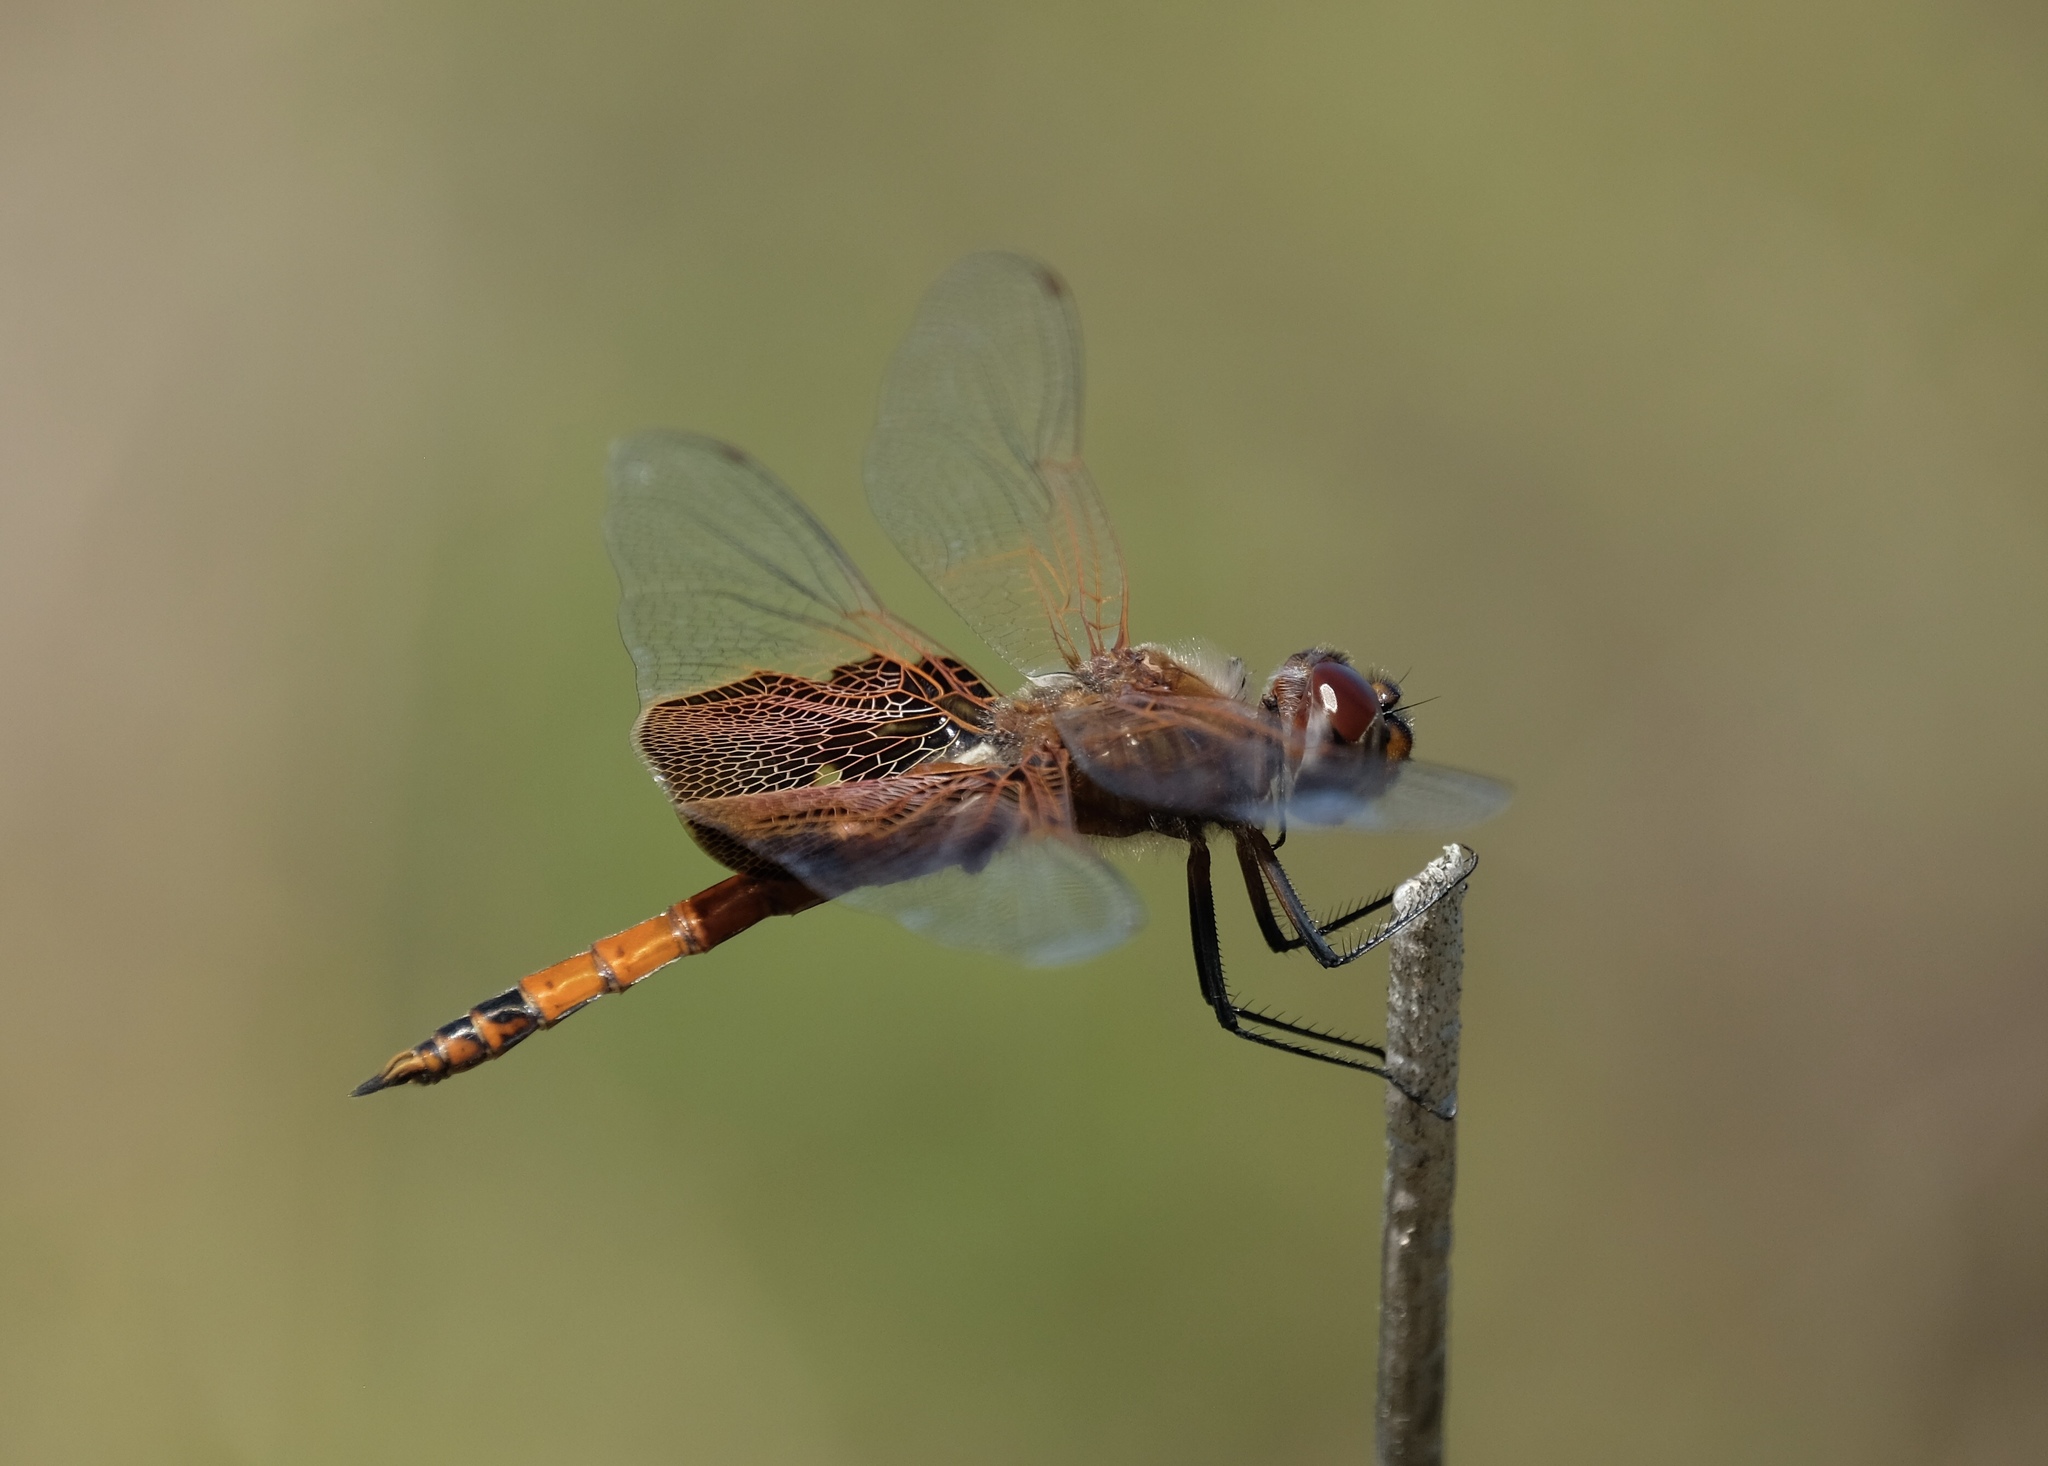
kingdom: Animalia
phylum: Arthropoda
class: Insecta
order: Odonata
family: Libellulidae
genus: Tramea
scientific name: Tramea carolina
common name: Carolina saddlebags
